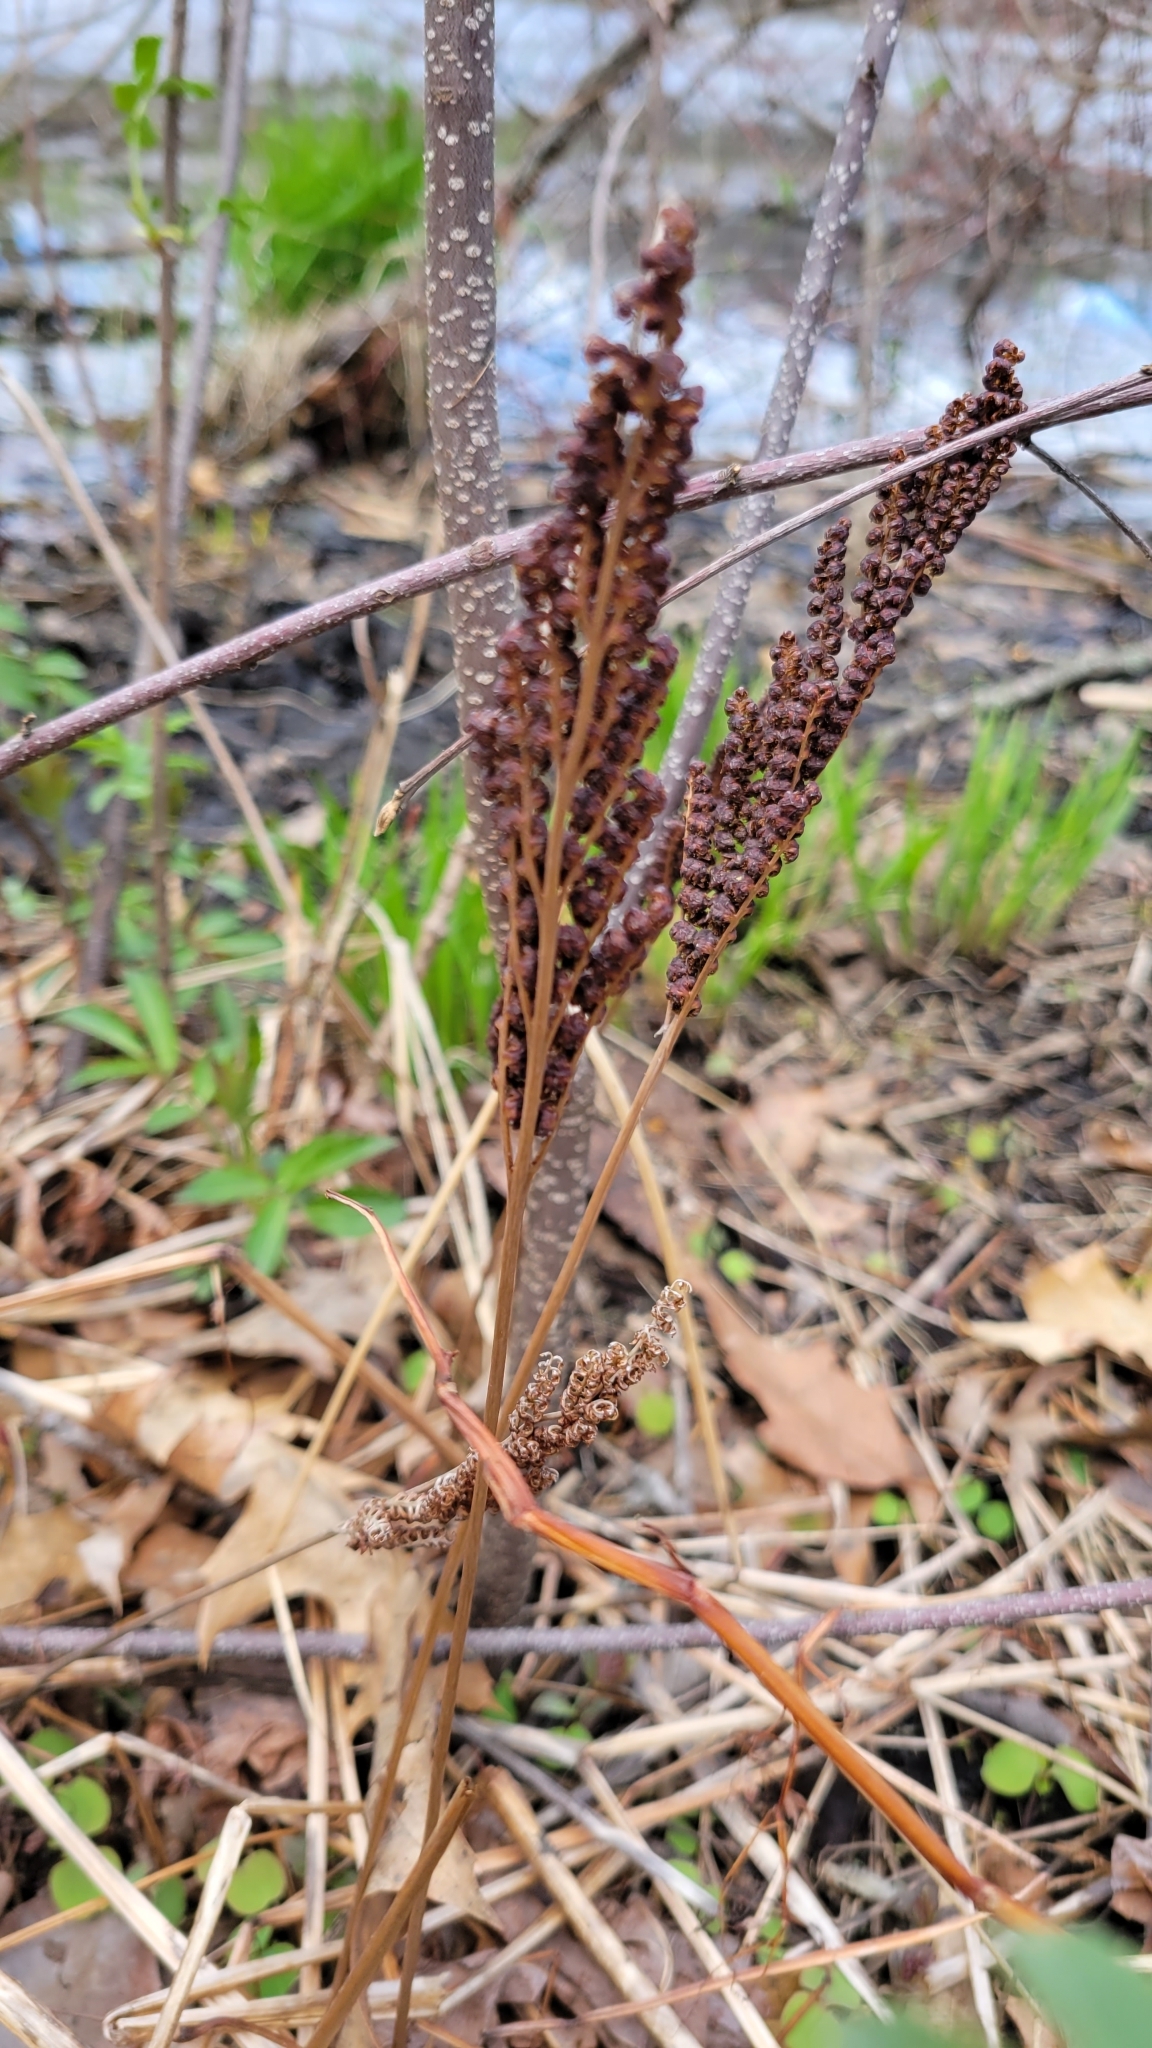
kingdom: Plantae
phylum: Tracheophyta
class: Polypodiopsida
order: Polypodiales
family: Onocleaceae
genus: Onoclea
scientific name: Onoclea sensibilis
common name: Sensitive fern
